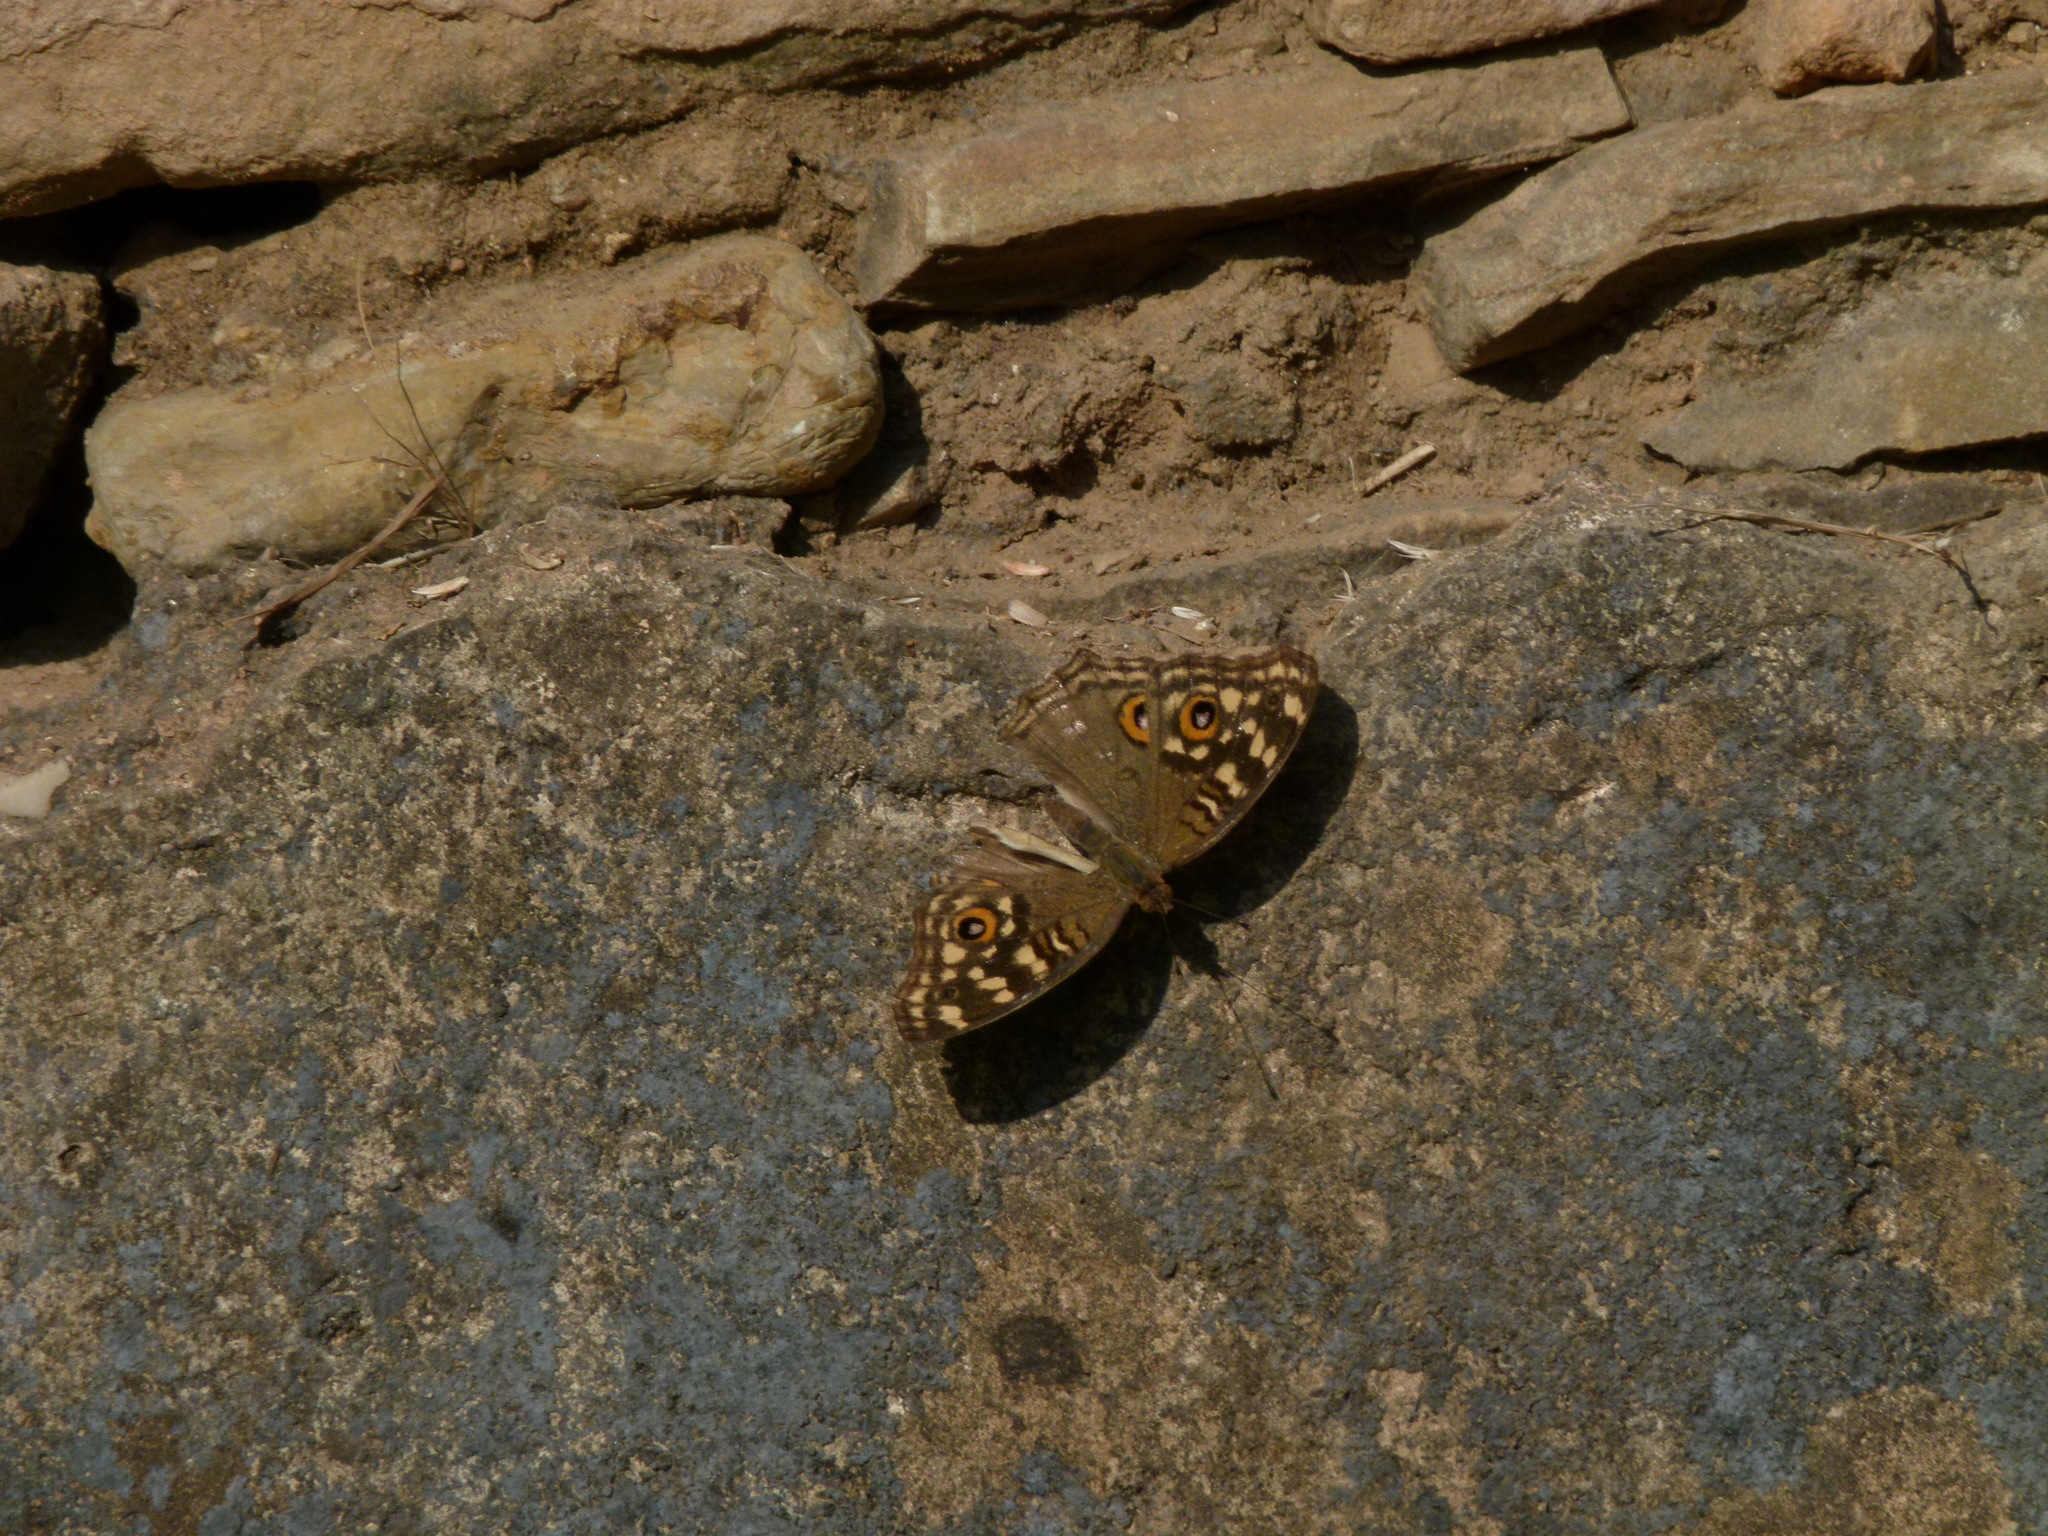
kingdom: Animalia
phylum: Arthropoda
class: Insecta
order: Lepidoptera
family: Nymphalidae
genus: Junonia
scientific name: Junonia lemonias
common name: Lemon pansy
